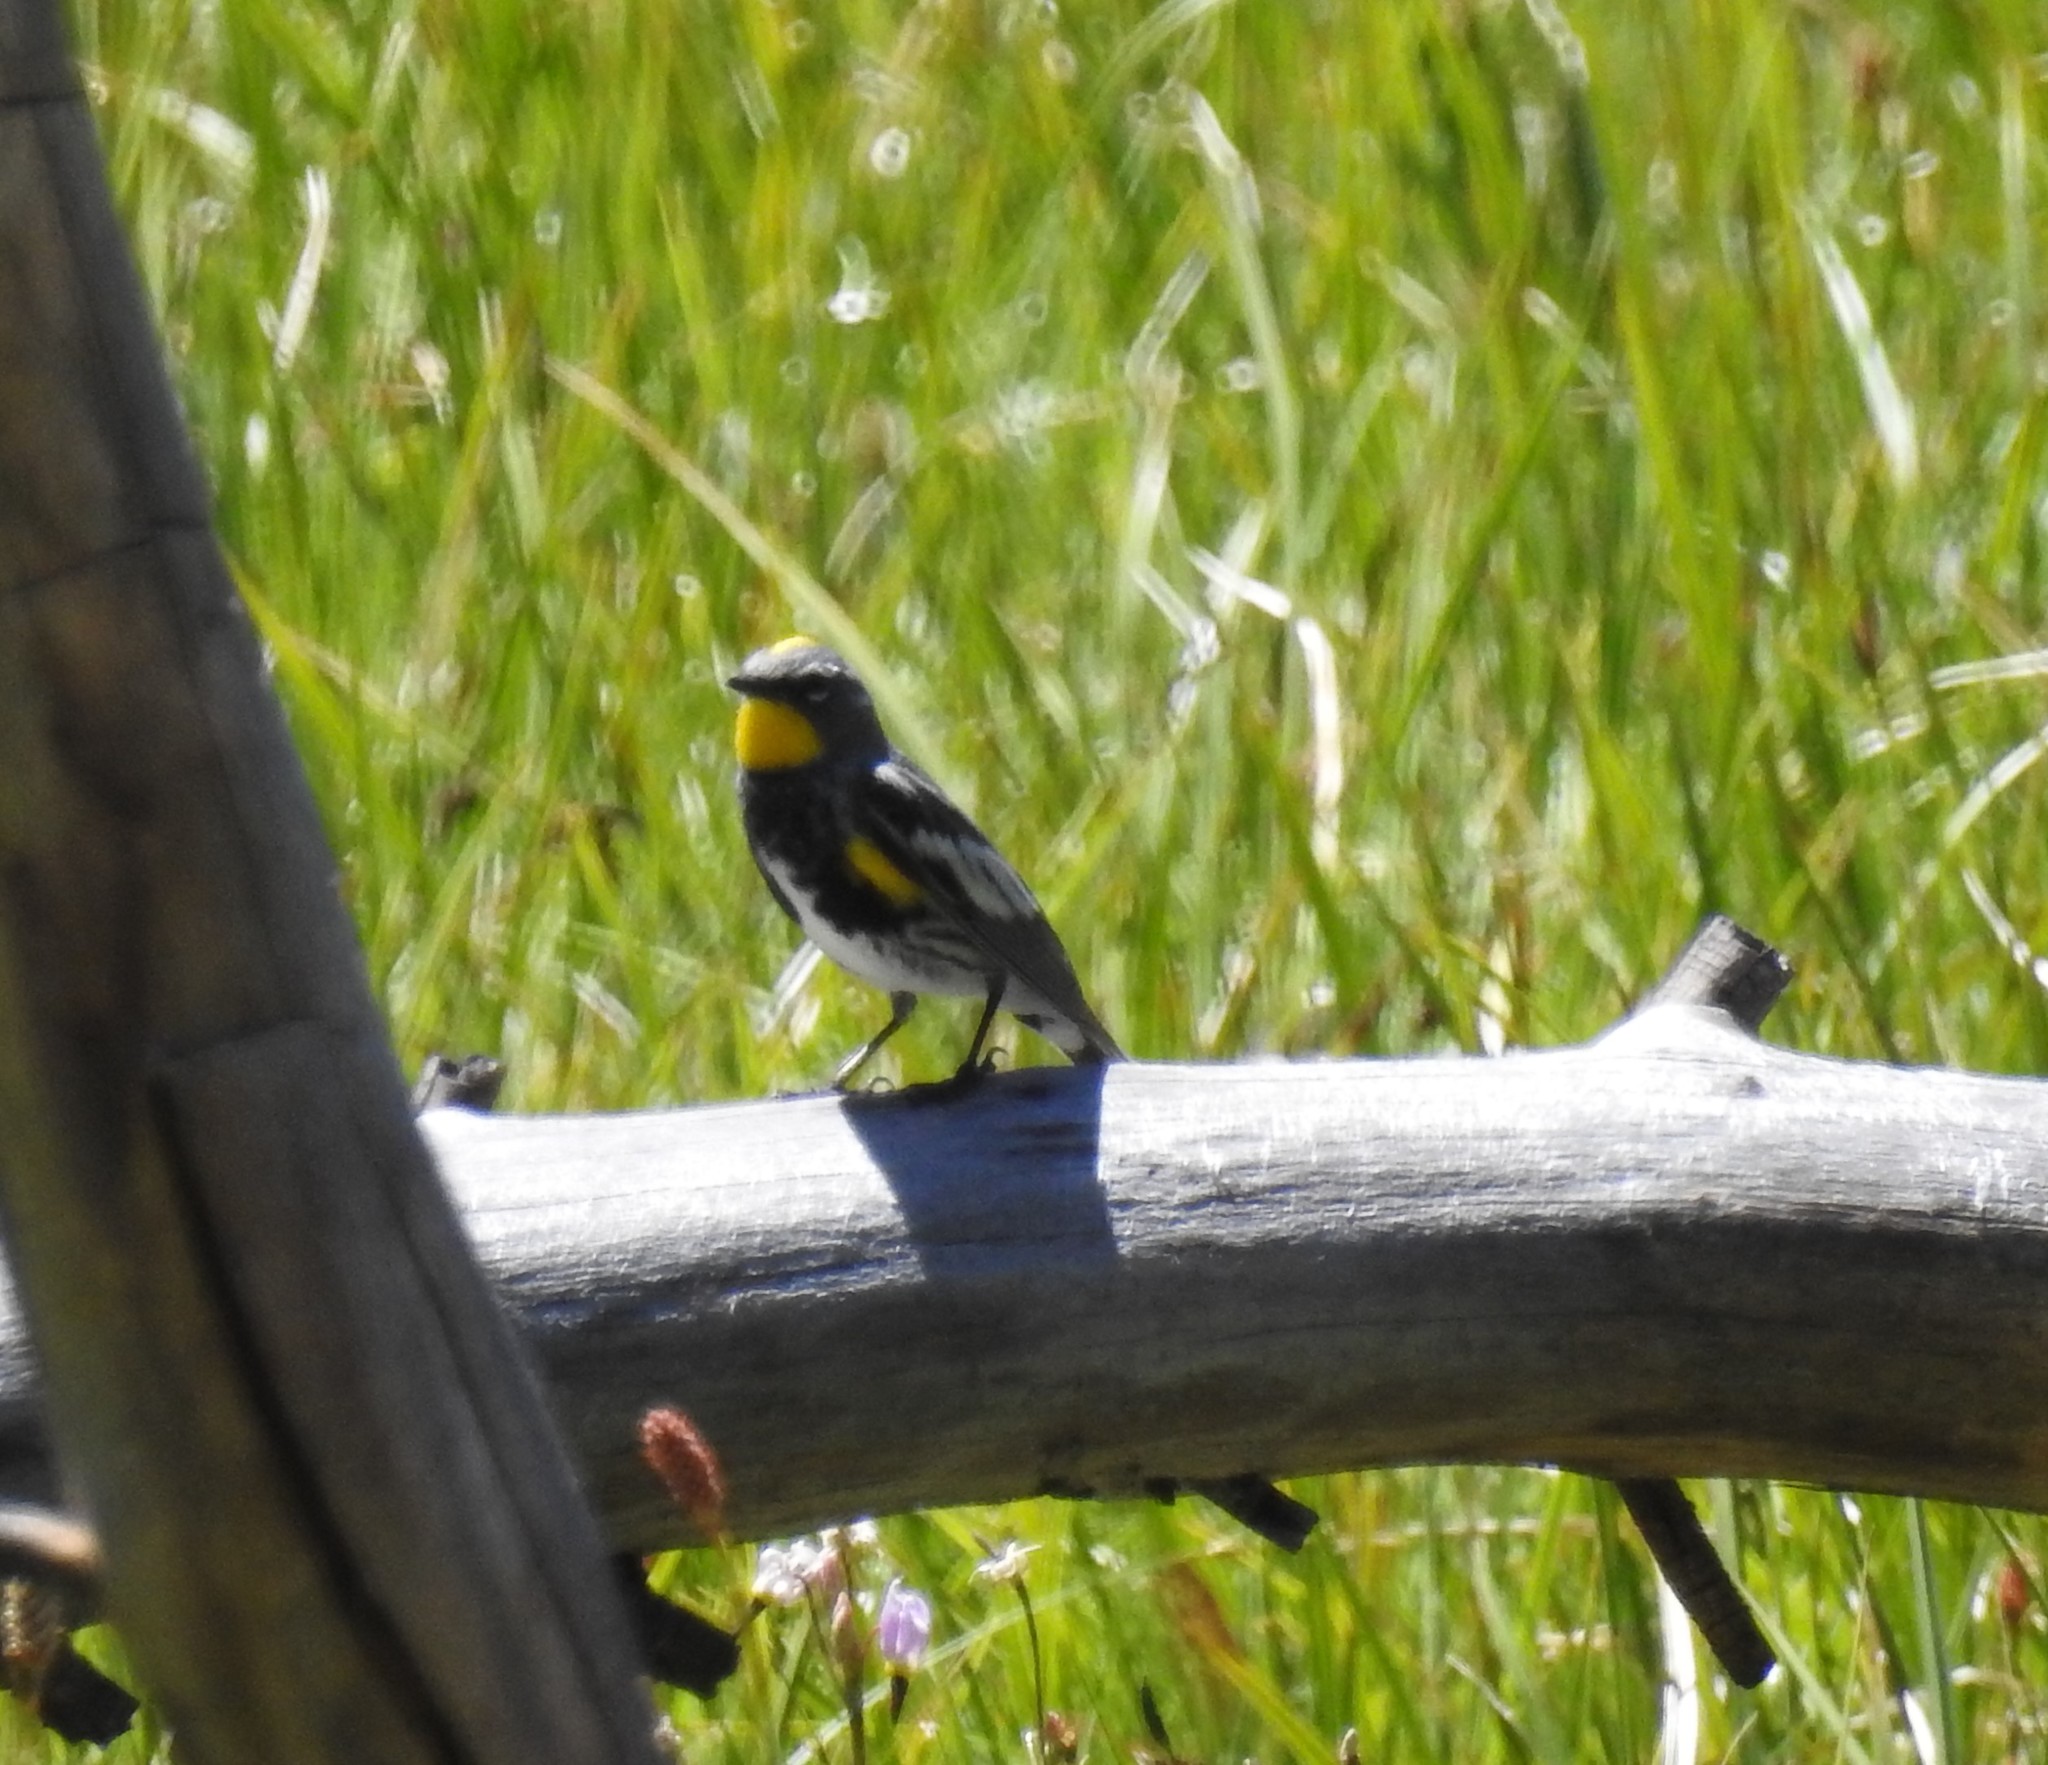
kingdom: Animalia
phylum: Chordata
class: Aves
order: Passeriformes
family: Parulidae
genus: Setophaga
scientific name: Setophaga coronata
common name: Myrtle warbler
